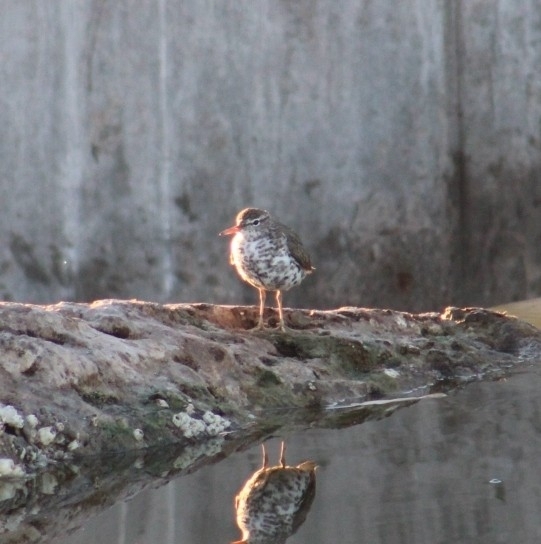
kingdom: Animalia
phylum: Chordata
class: Aves
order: Charadriiformes
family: Scolopacidae
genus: Actitis
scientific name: Actitis macularius
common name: Spotted sandpiper
